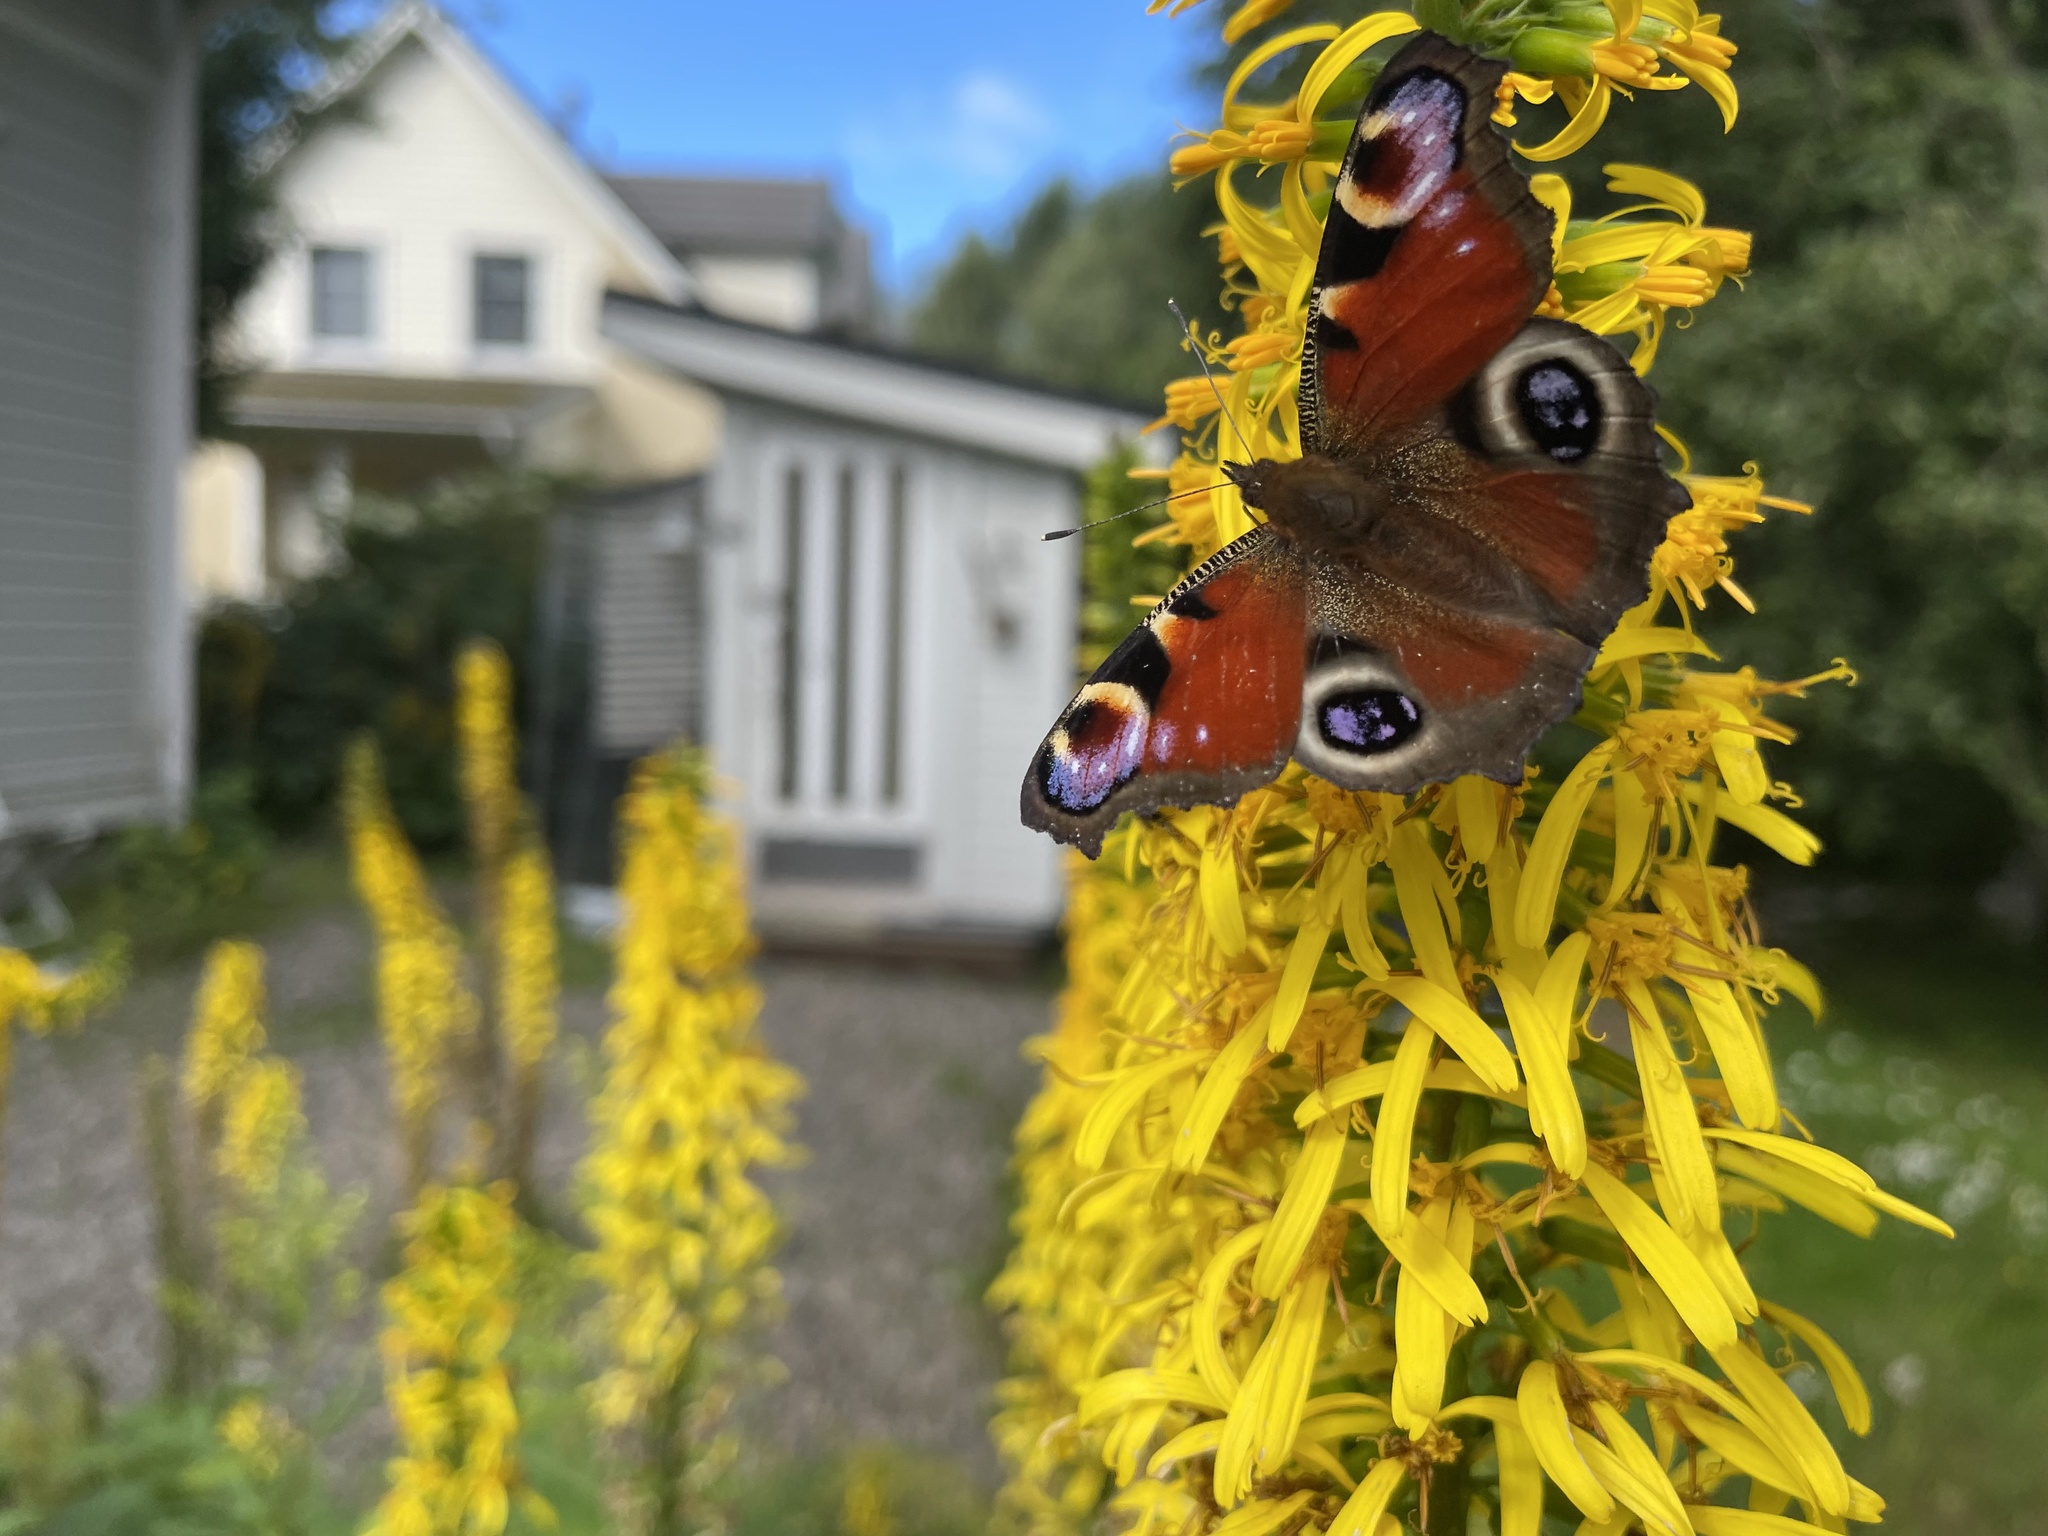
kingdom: Animalia
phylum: Arthropoda
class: Insecta
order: Lepidoptera
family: Nymphalidae
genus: Aglais
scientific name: Aglais io
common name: Peacock
